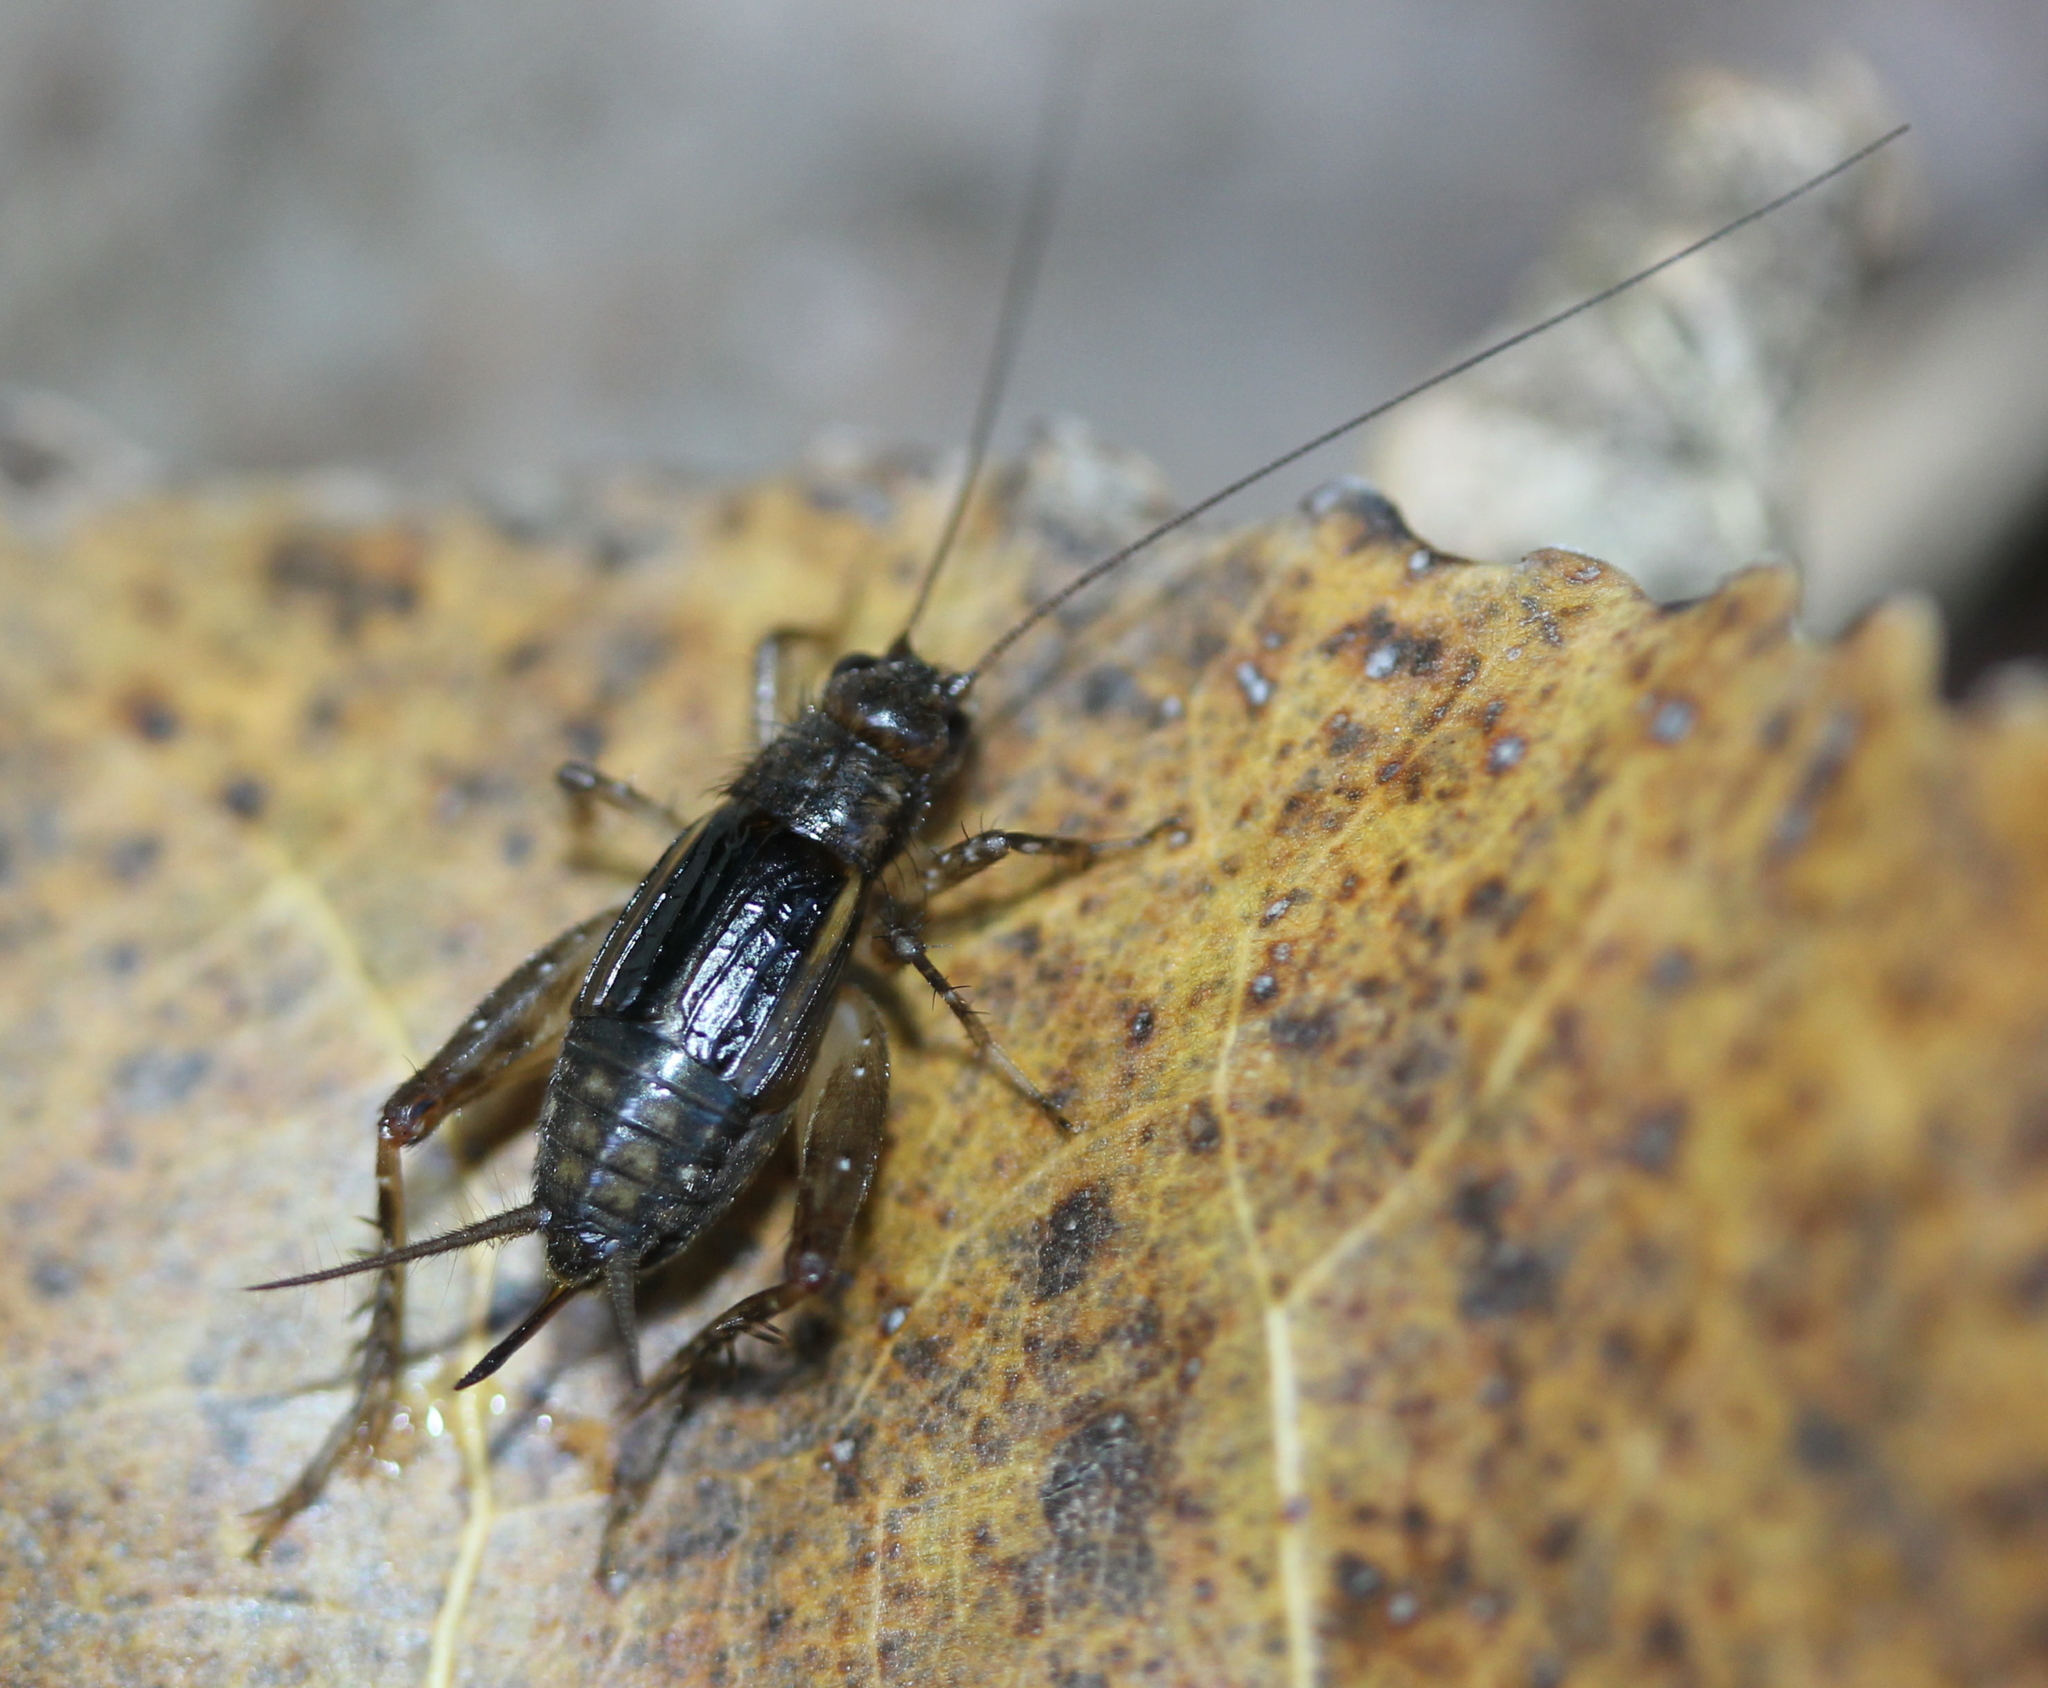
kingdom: Animalia
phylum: Arthropoda
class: Insecta
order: Orthoptera
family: Trigonidiidae
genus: Eunemobius
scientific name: Eunemobius carolinus
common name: Carolina ground cricket
